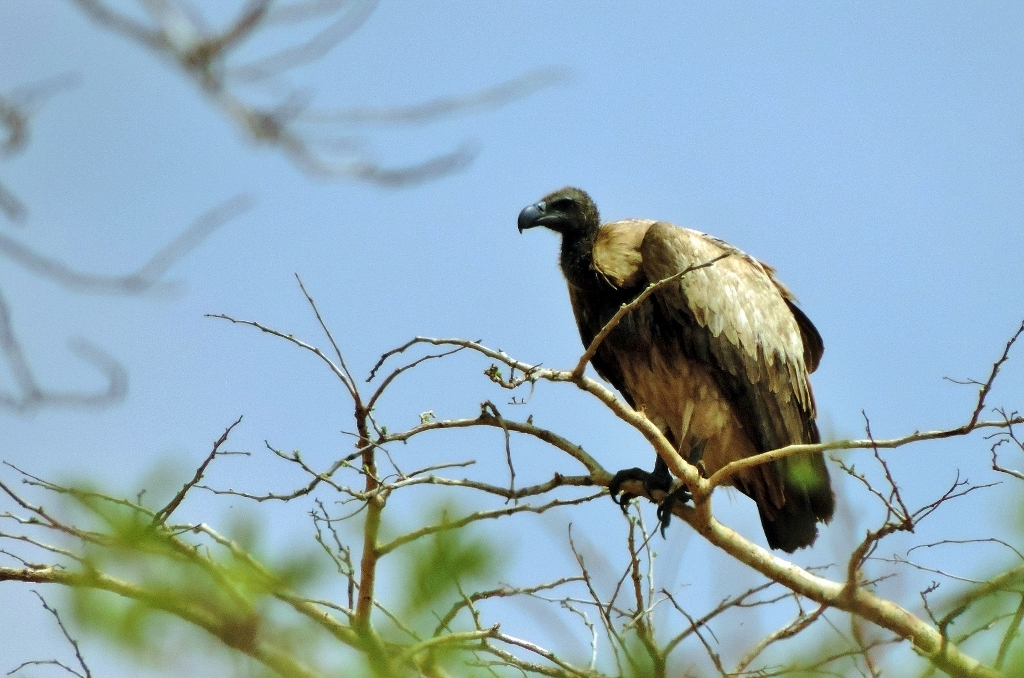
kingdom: Animalia
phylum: Chordata
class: Aves
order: Accipitriformes
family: Accipitridae
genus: Gyps
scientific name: Gyps africanus
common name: White-backed vulture
